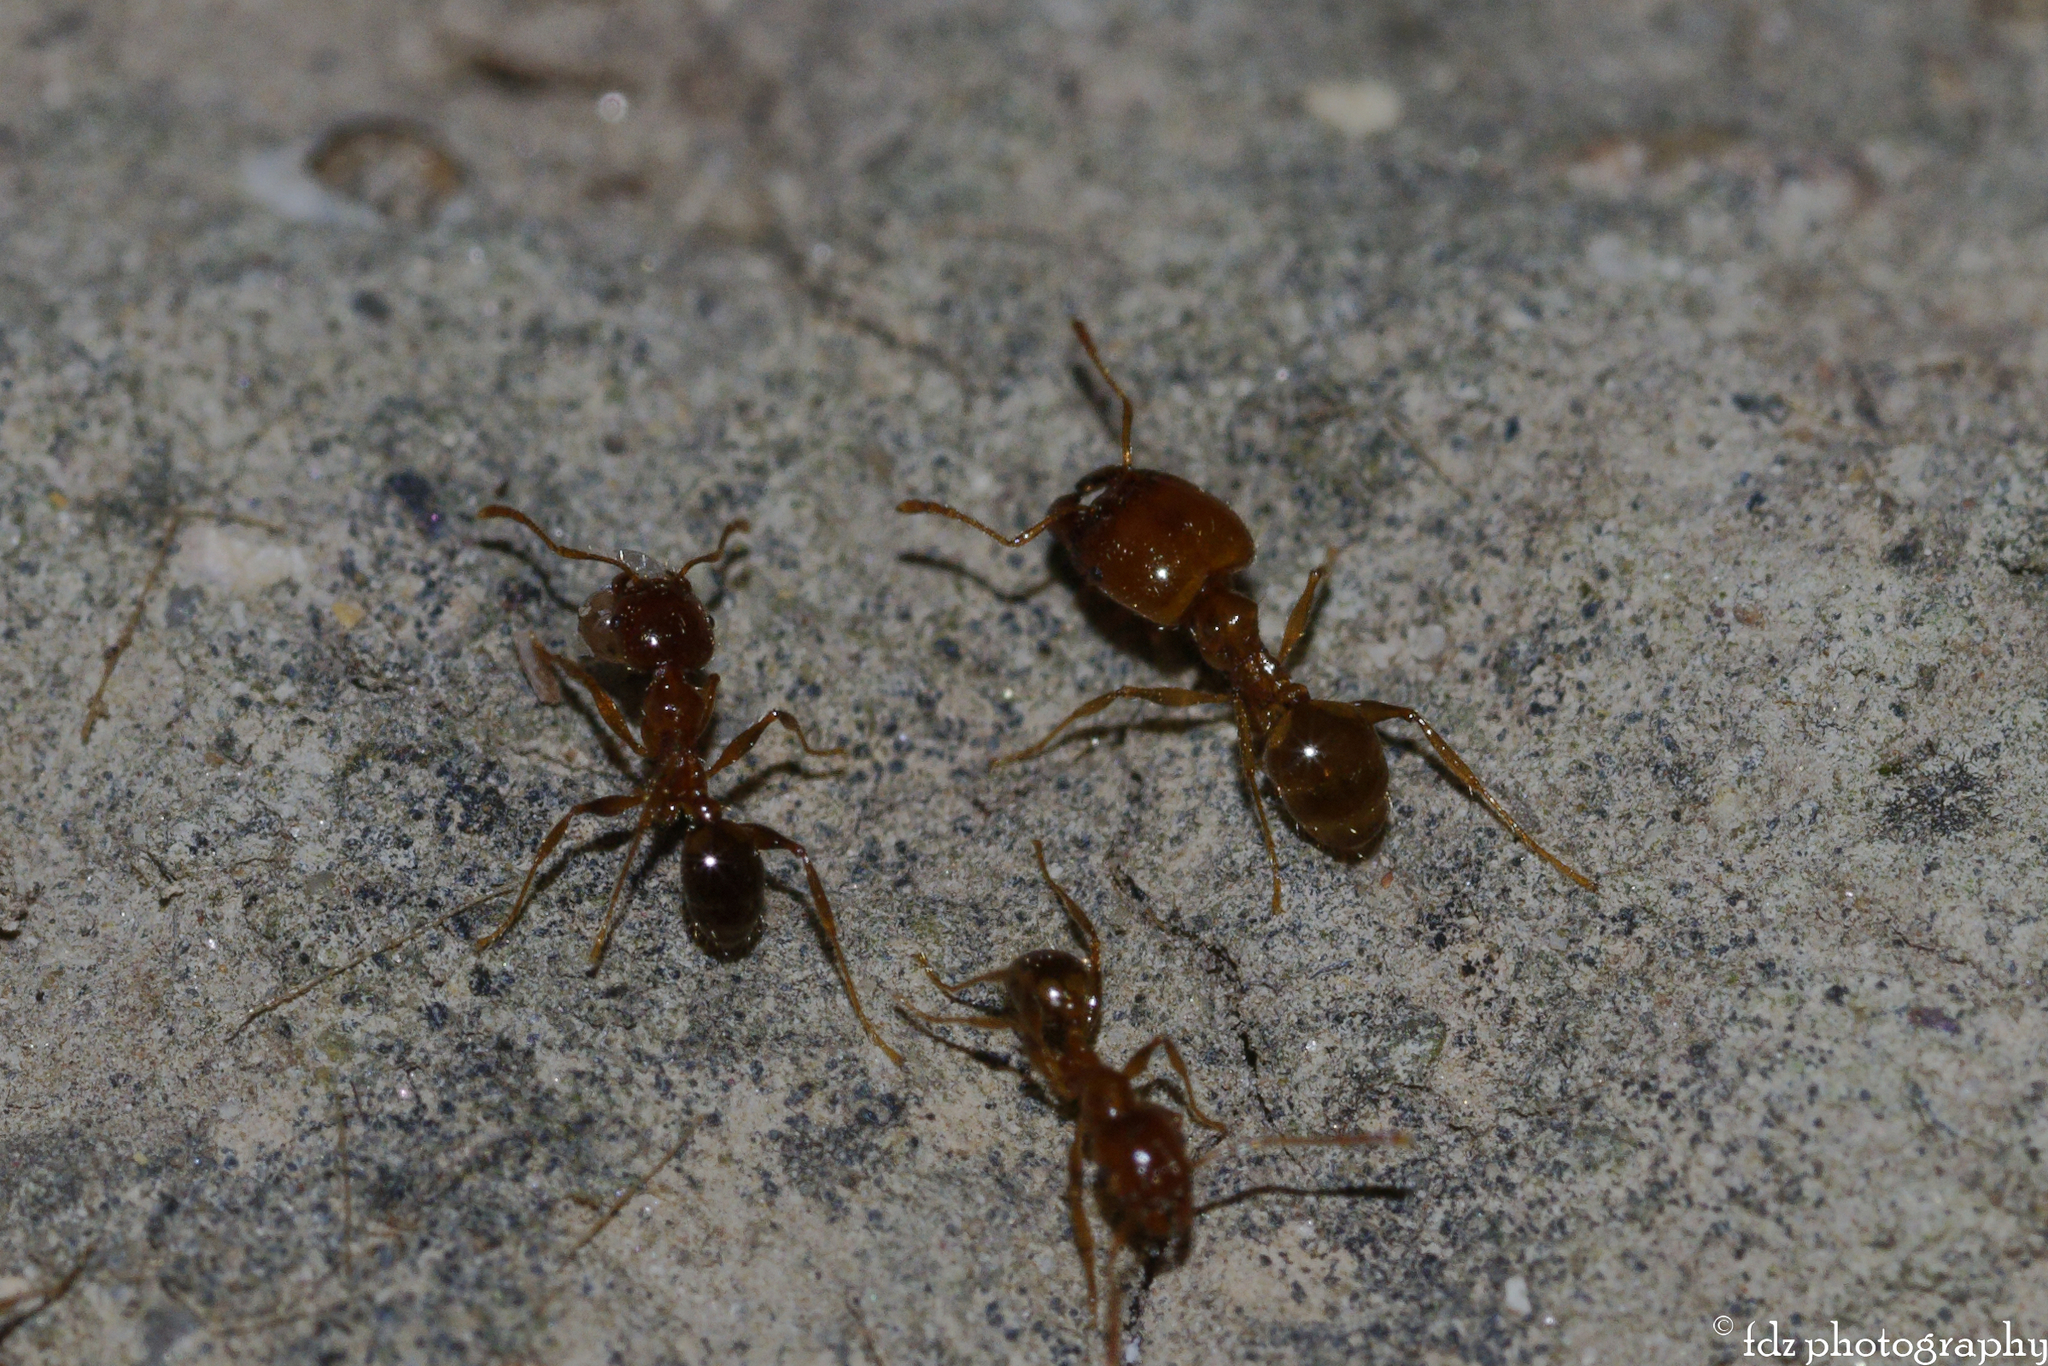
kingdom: Animalia
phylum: Arthropoda
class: Insecta
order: Hymenoptera
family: Formicidae
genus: Pheidole
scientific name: Pheidole pallidula
